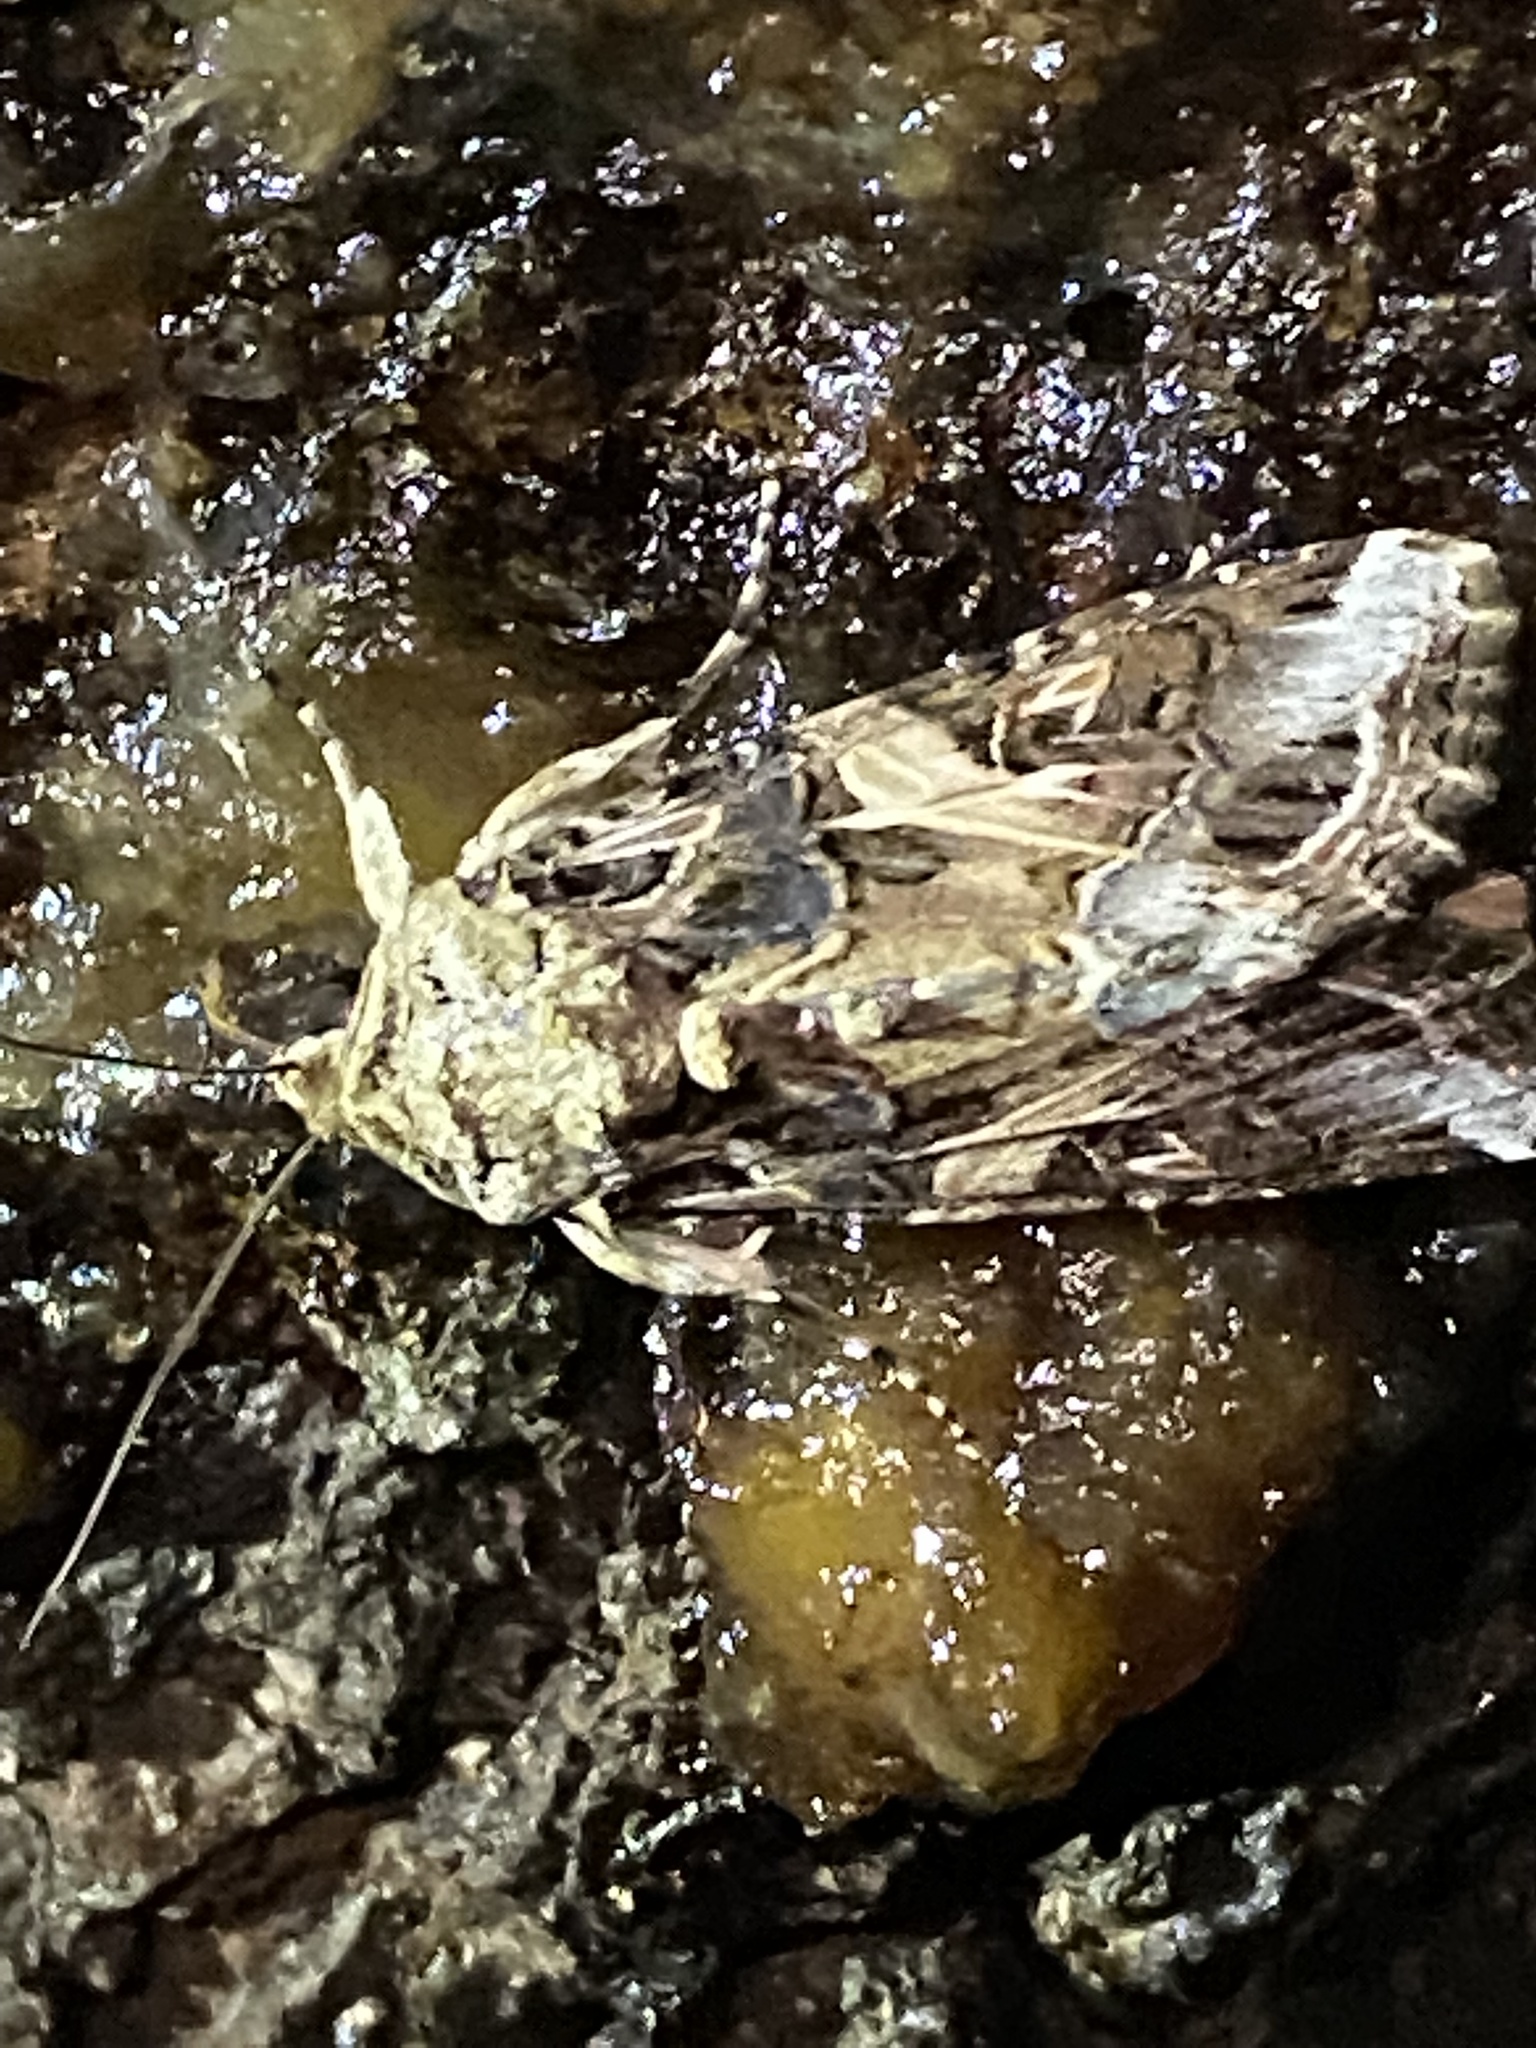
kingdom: Animalia
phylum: Arthropoda
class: Insecta
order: Lepidoptera
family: Noctuidae
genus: Spodoptera
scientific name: Spodoptera ornithogalli
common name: Yellow-striped armyworm
